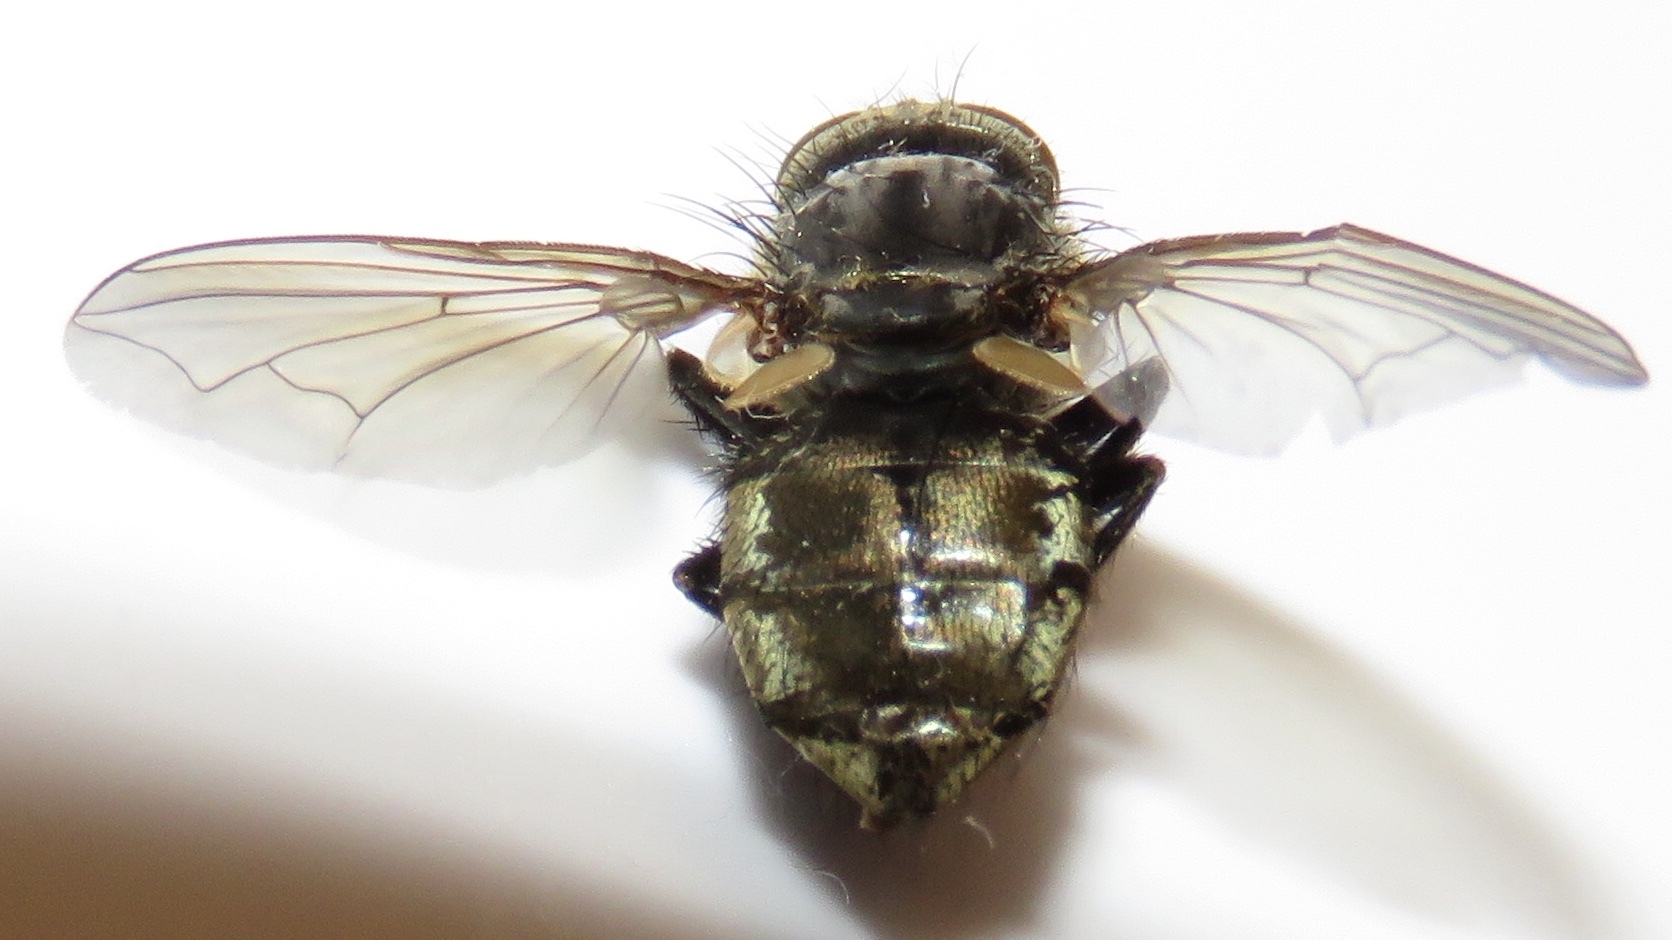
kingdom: Animalia
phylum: Arthropoda
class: Insecta
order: Diptera
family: Polleniidae
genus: Pollenia
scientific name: Pollenia
